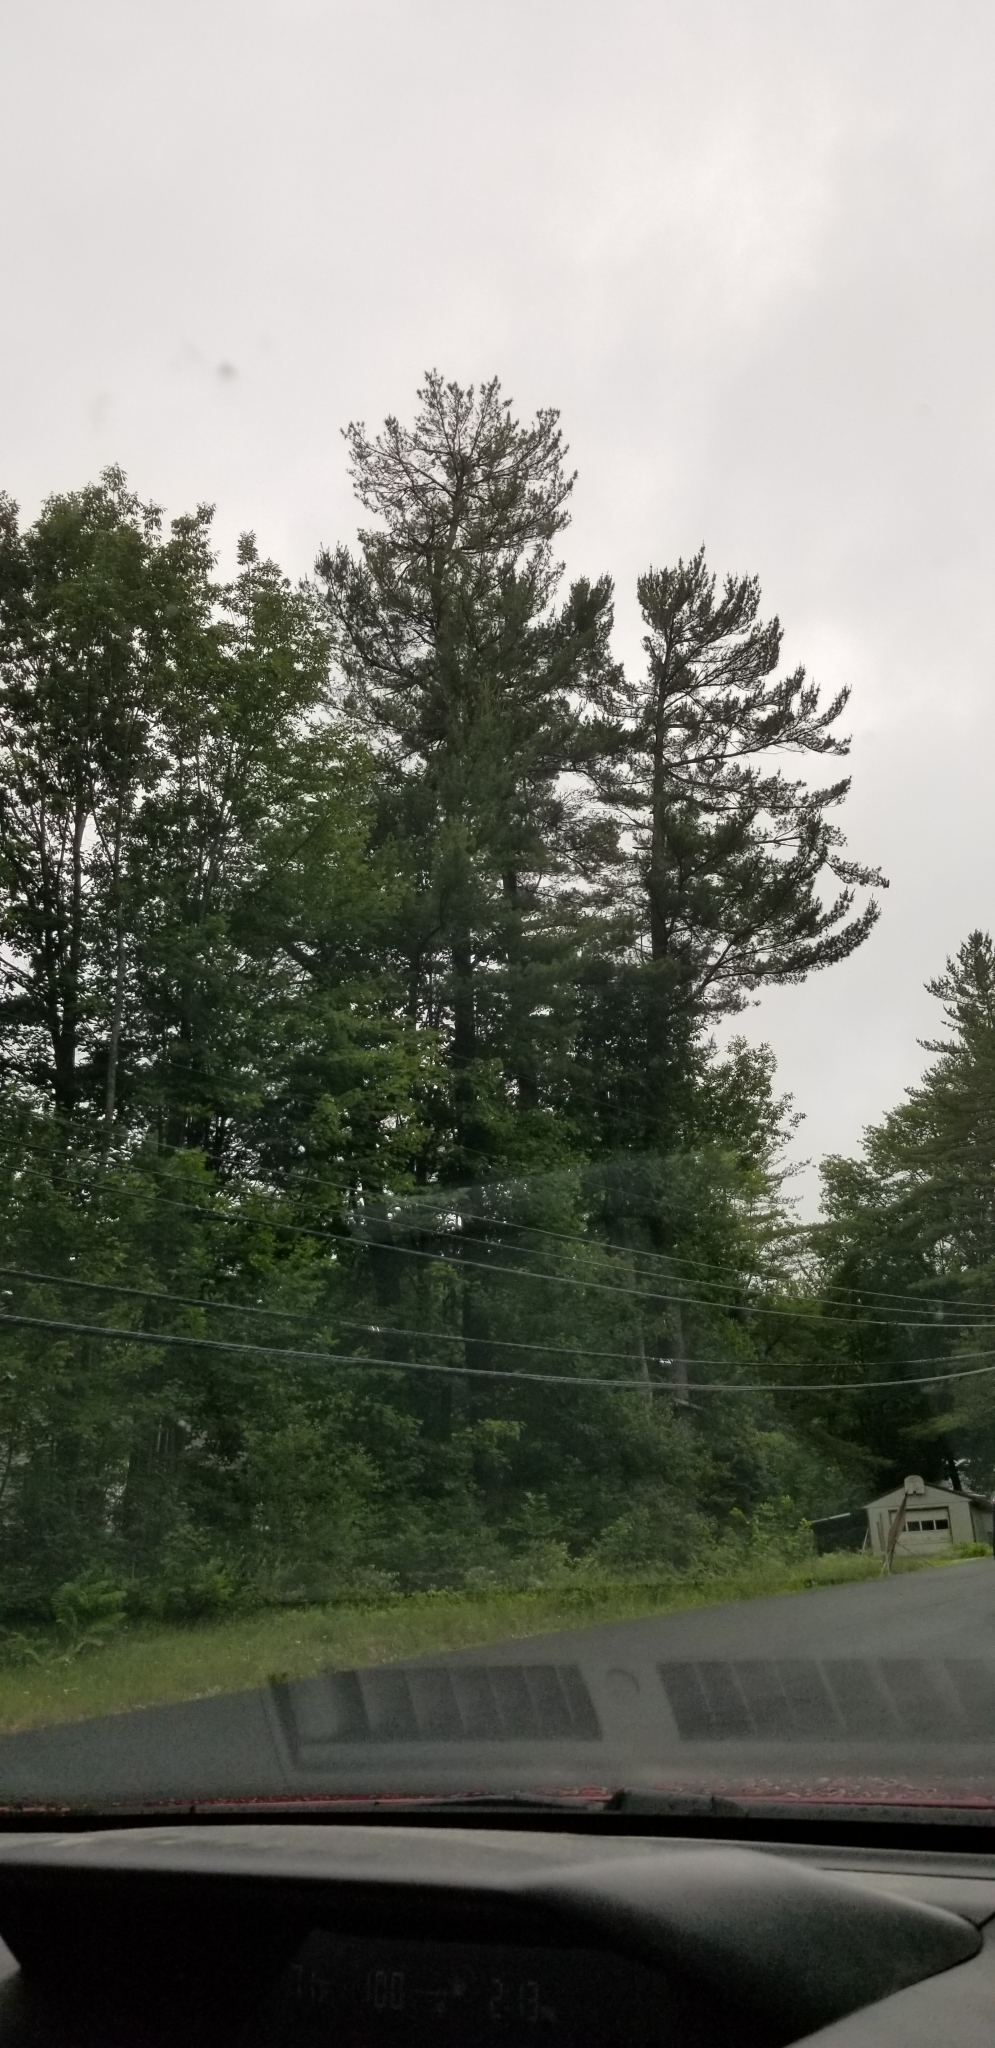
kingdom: Plantae
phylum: Tracheophyta
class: Pinopsida
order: Pinales
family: Pinaceae
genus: Pinus
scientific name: Pinus strobus
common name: Weymouth pine
